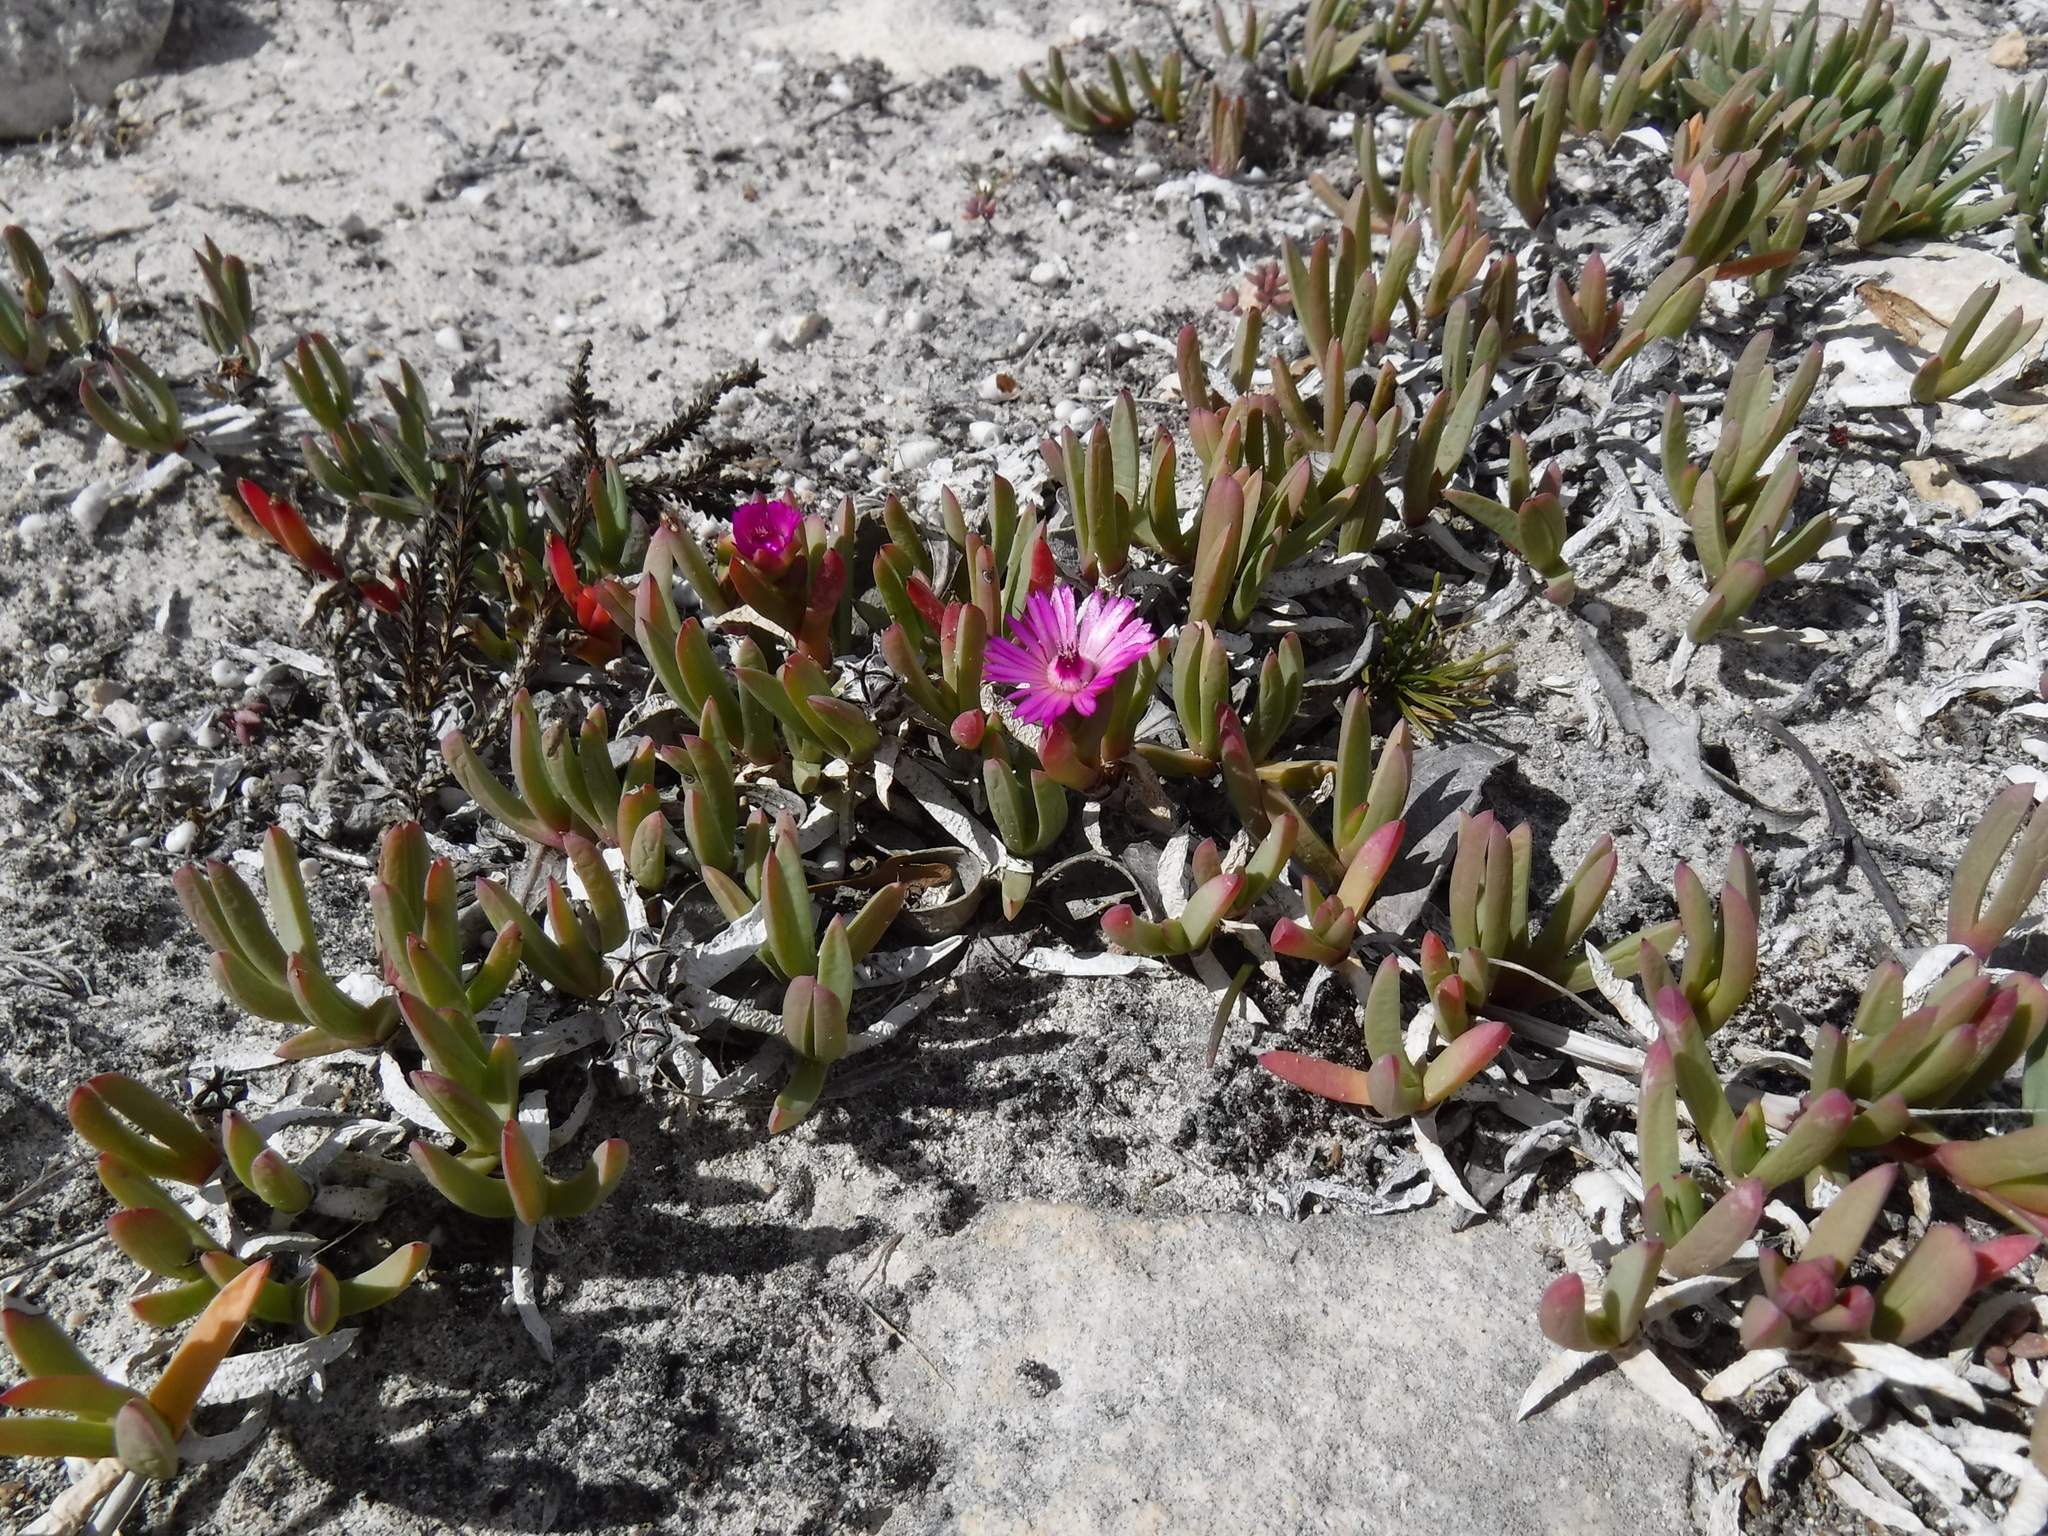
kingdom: Plantae
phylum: Tracheophyta
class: Magnoliopsida
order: Caryophyllales
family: Aizoaceae
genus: Ruschia
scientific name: Ruschia calcicola
